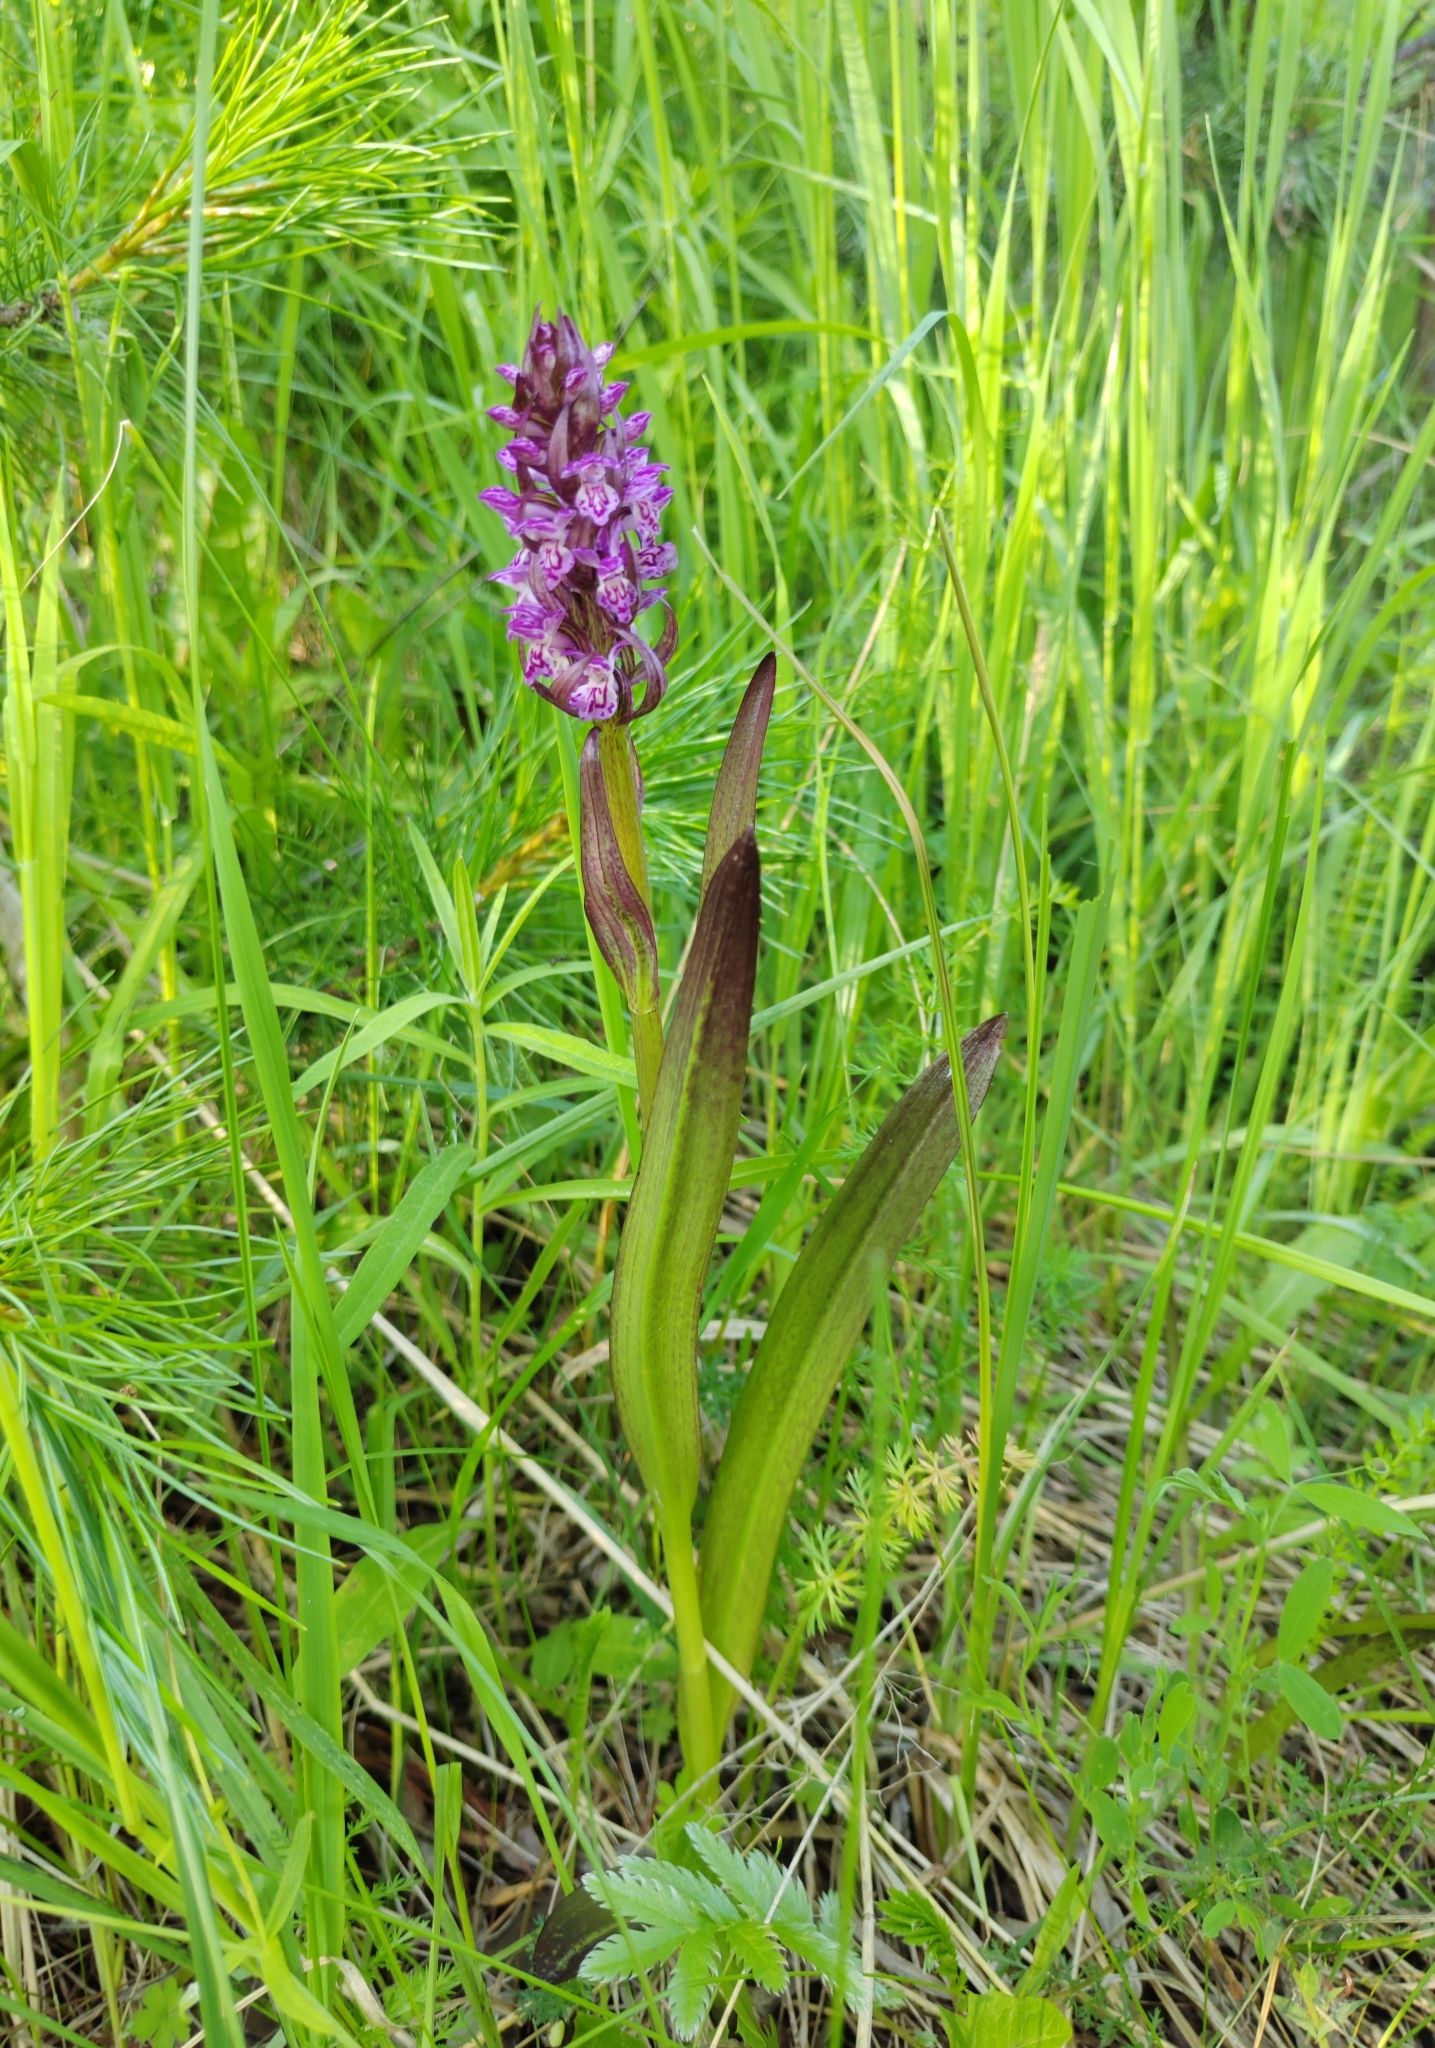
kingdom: Plantae
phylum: Tracheophyta
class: Liliopsida
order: Asparagales
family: Orchidaceae
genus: Dactylorhiza
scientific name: Dactylorhiza incarnata
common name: Early marsh-orchid
